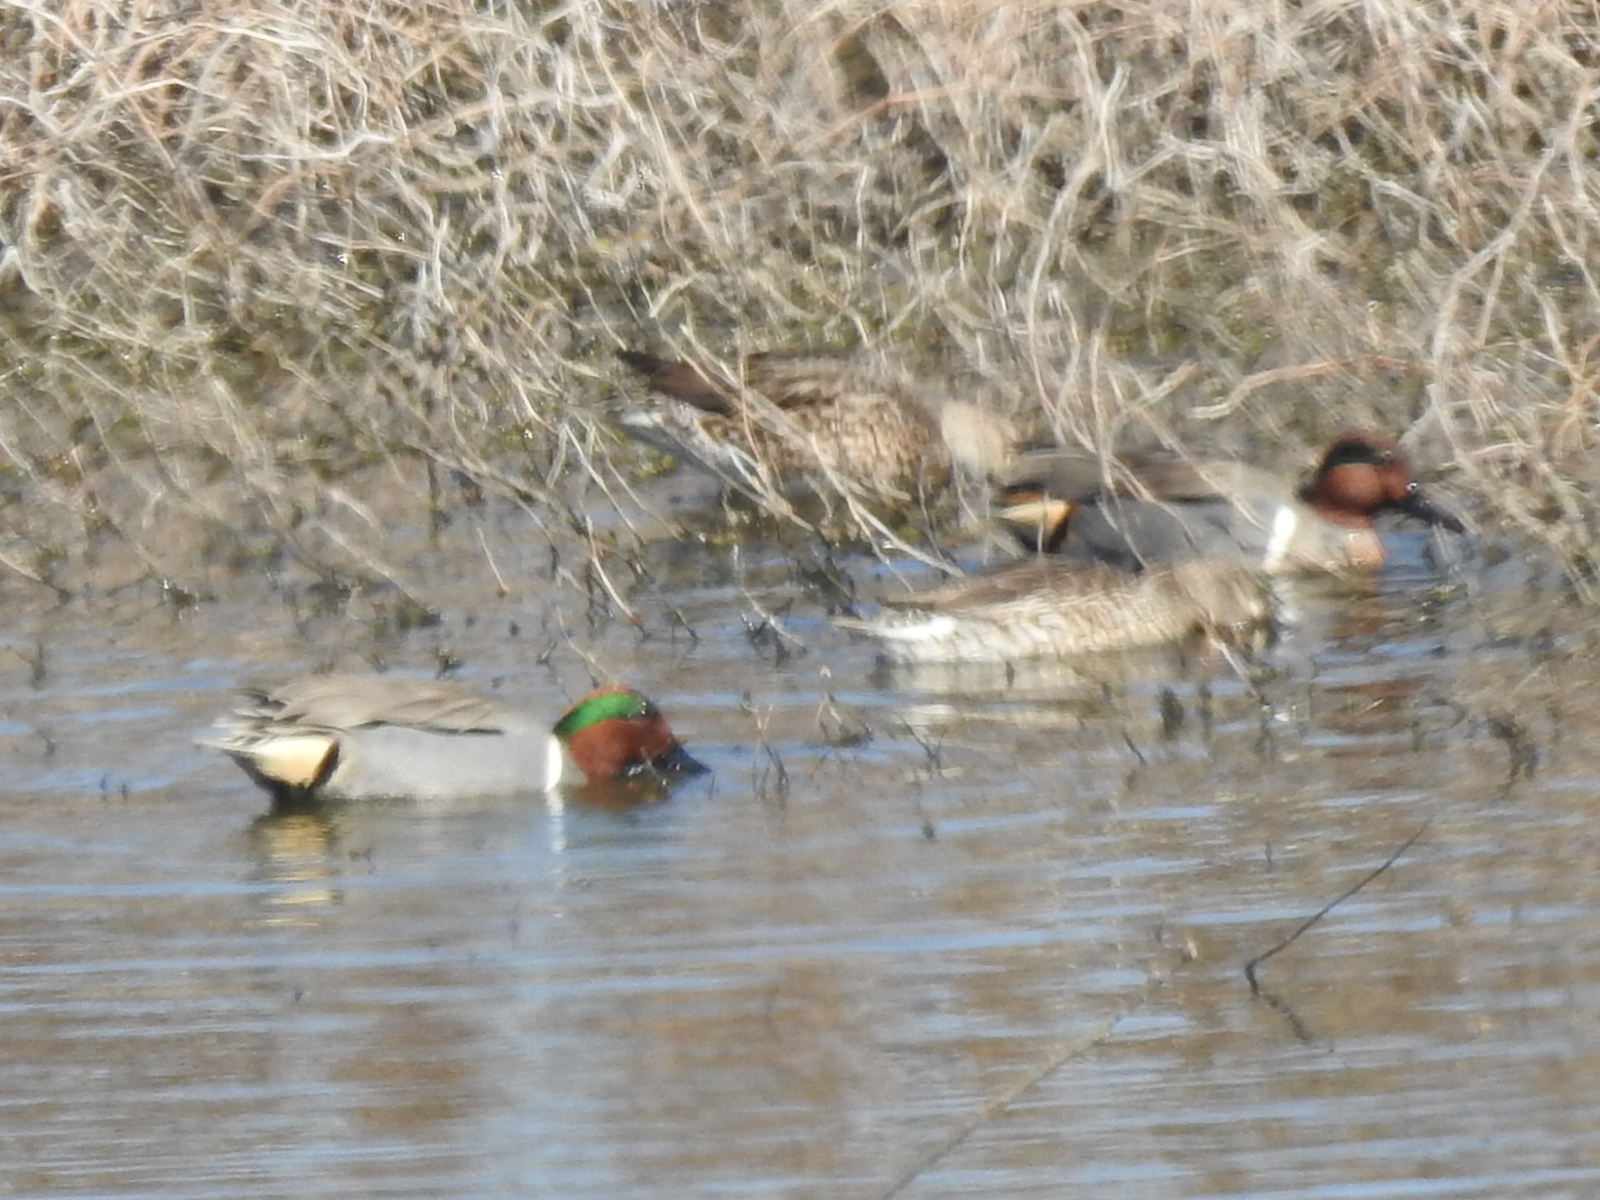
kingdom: Animalia
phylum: Chordata
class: Aves
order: Anseriformes
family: Anatidae
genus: Anas
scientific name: Anas crecca
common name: Eurasian teal
